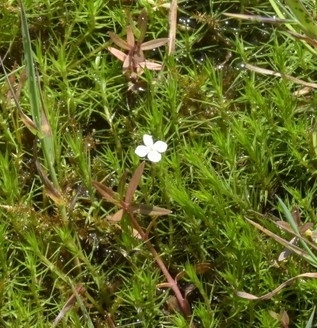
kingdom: Plantae
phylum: Tracheophyta
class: Magnoliopsida
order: Lamiales
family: Plantaginaceae
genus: Veronica
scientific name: Veronica scutellata
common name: Marsh speedwell
